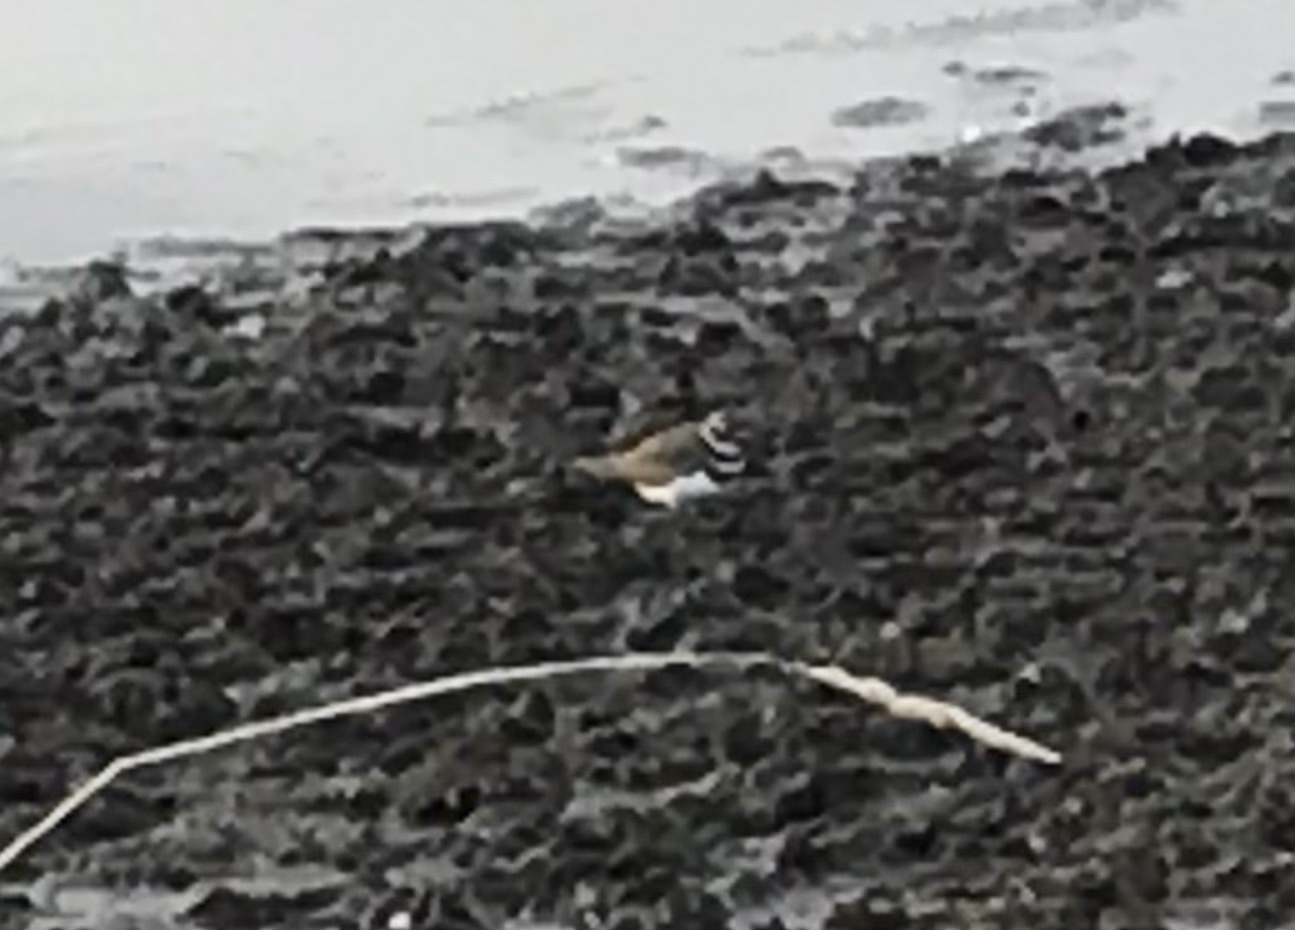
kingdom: Animalia
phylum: Chordata
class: Aves
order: Charadriiformes
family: Charadriidae
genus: Charadrius
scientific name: Charadrius vociferus
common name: Killdeer
